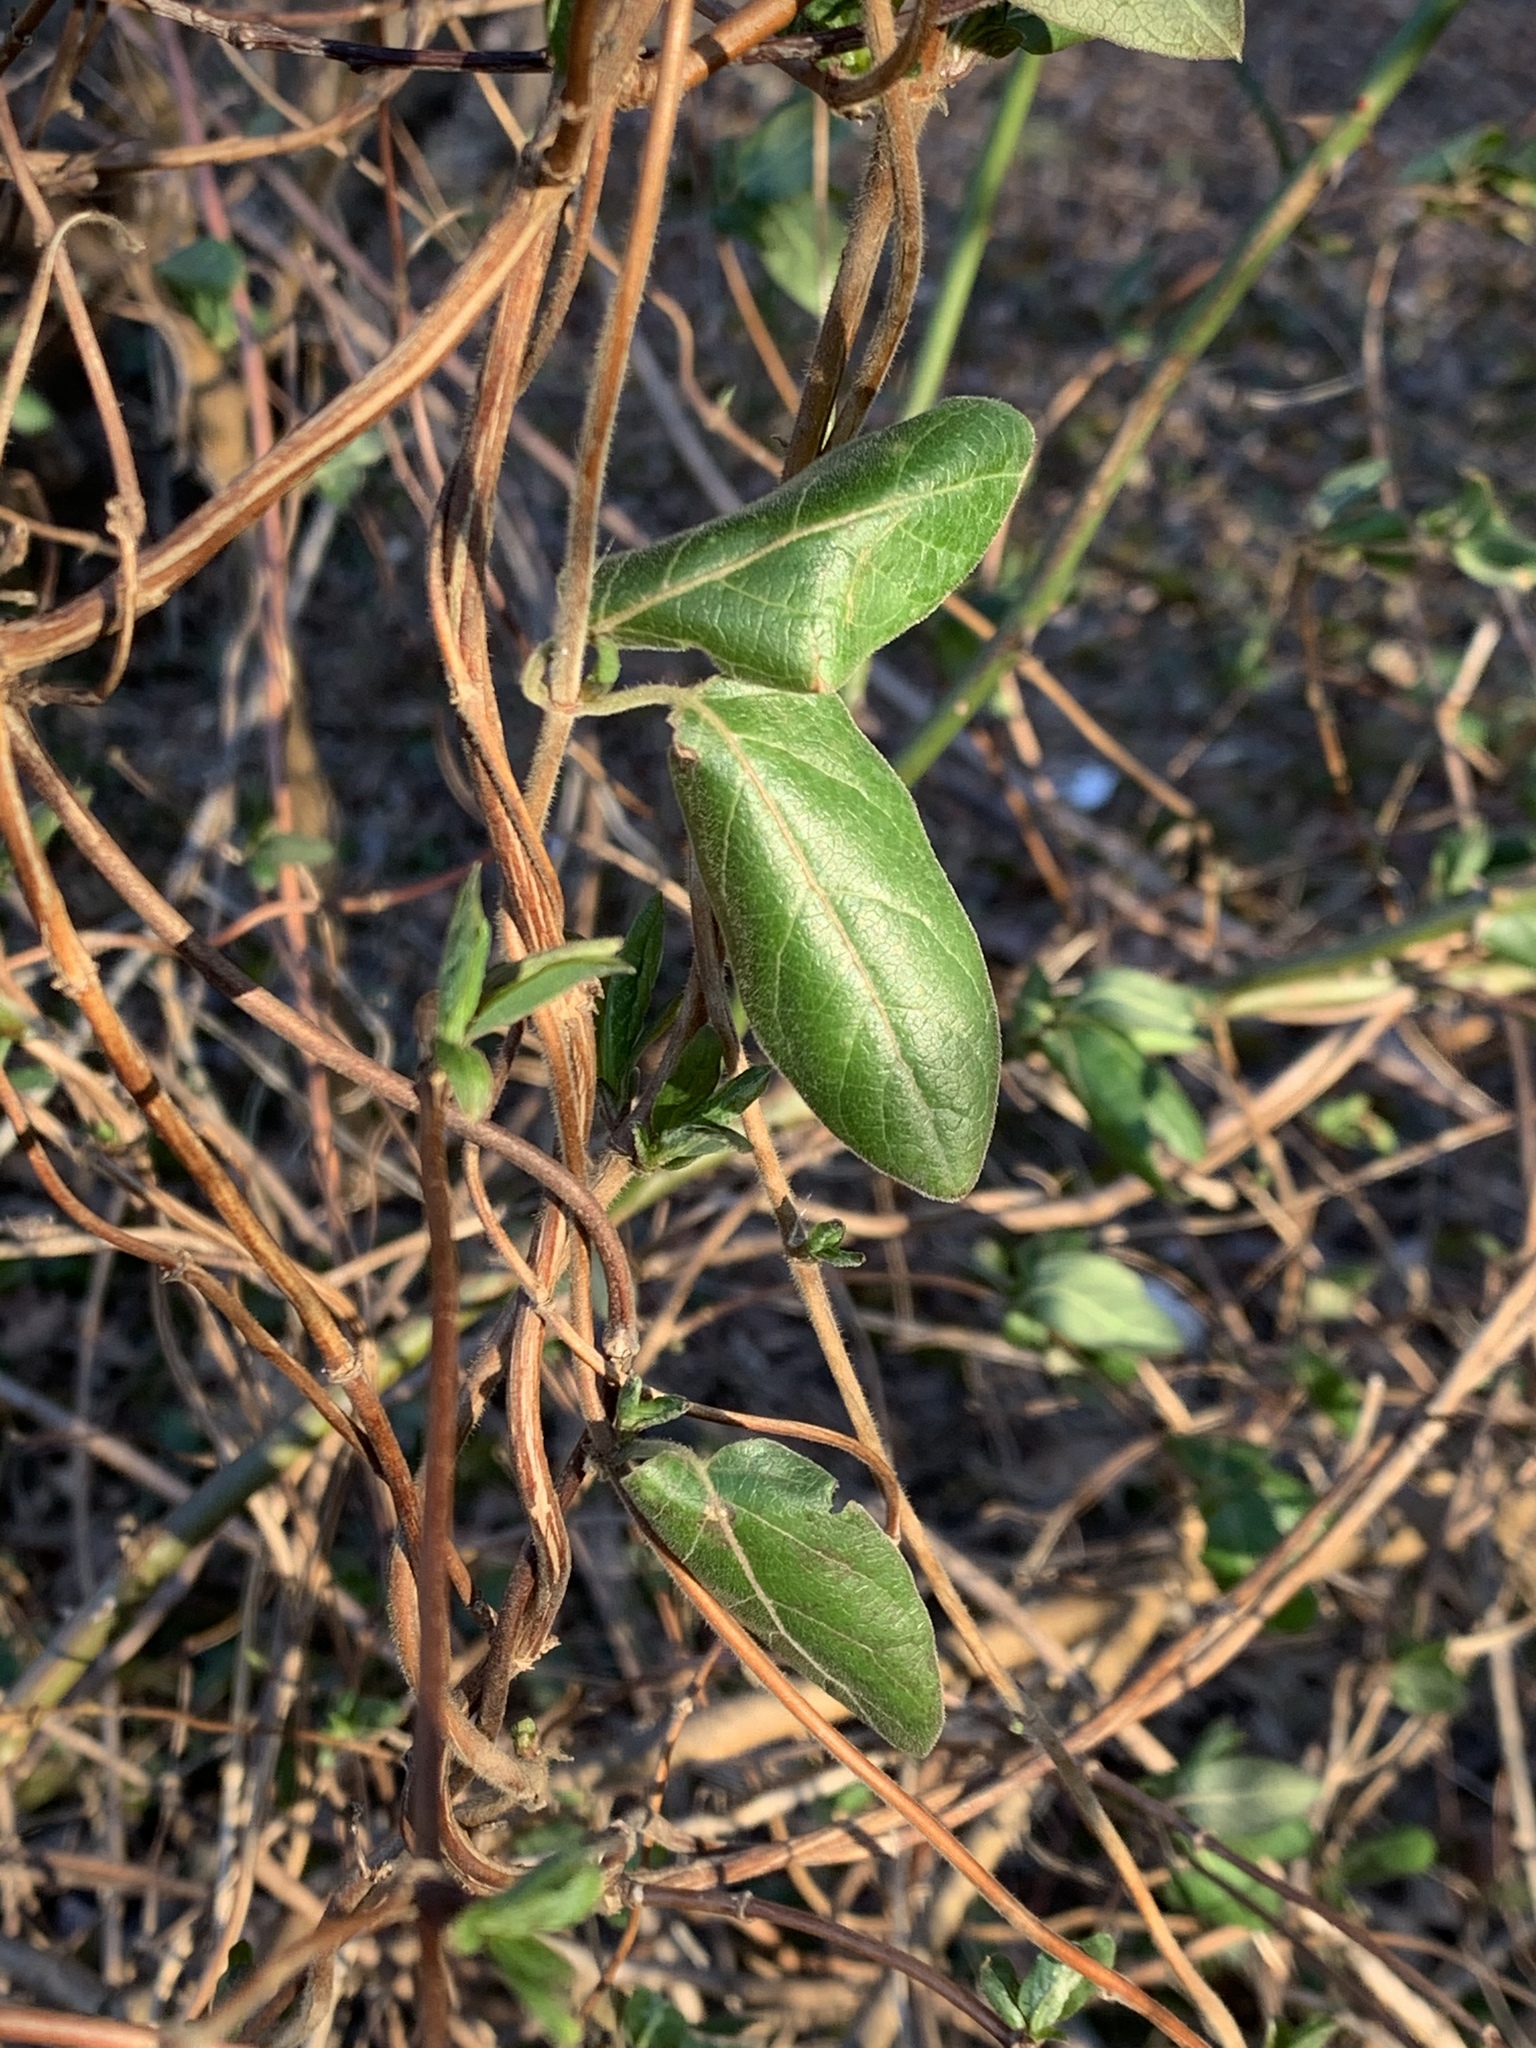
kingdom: Plantae
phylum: Tracheophyta
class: Magnoliopsida
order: Dipsacales
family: Caprifoliaceae
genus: Lonicera
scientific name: Lonicera japonica
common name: Japanese honeysuckle
